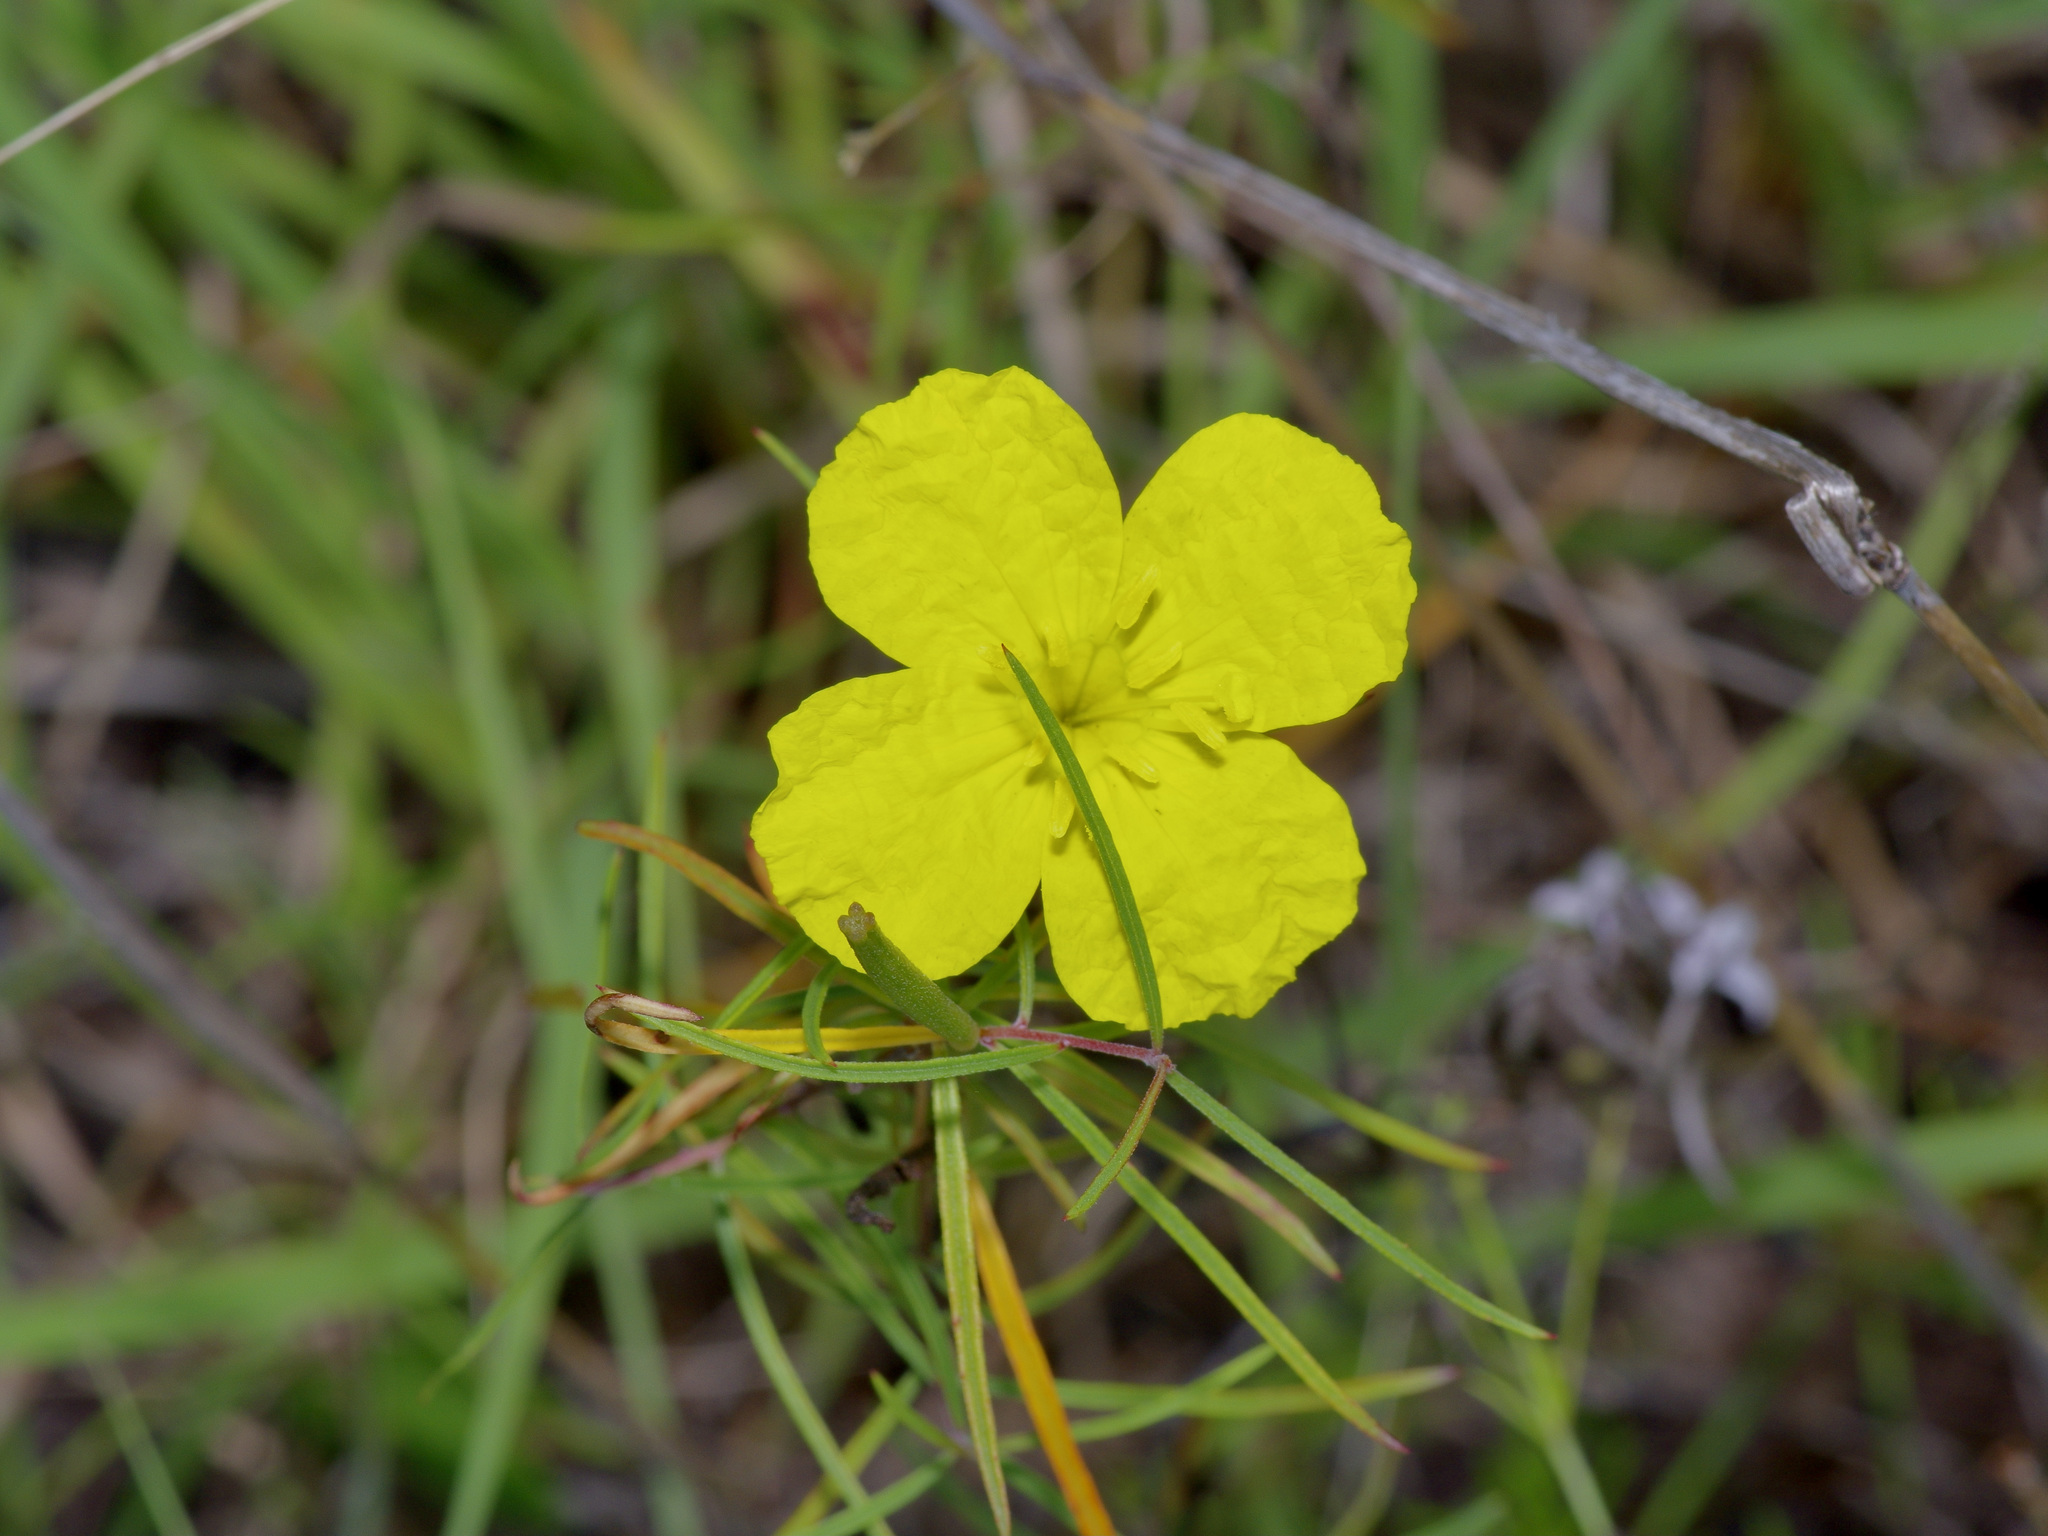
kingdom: Plantae
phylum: Tracheophyta
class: Magnoliopsida
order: Myrtales
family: Onagraceae
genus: Oenothera
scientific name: Oenothera
